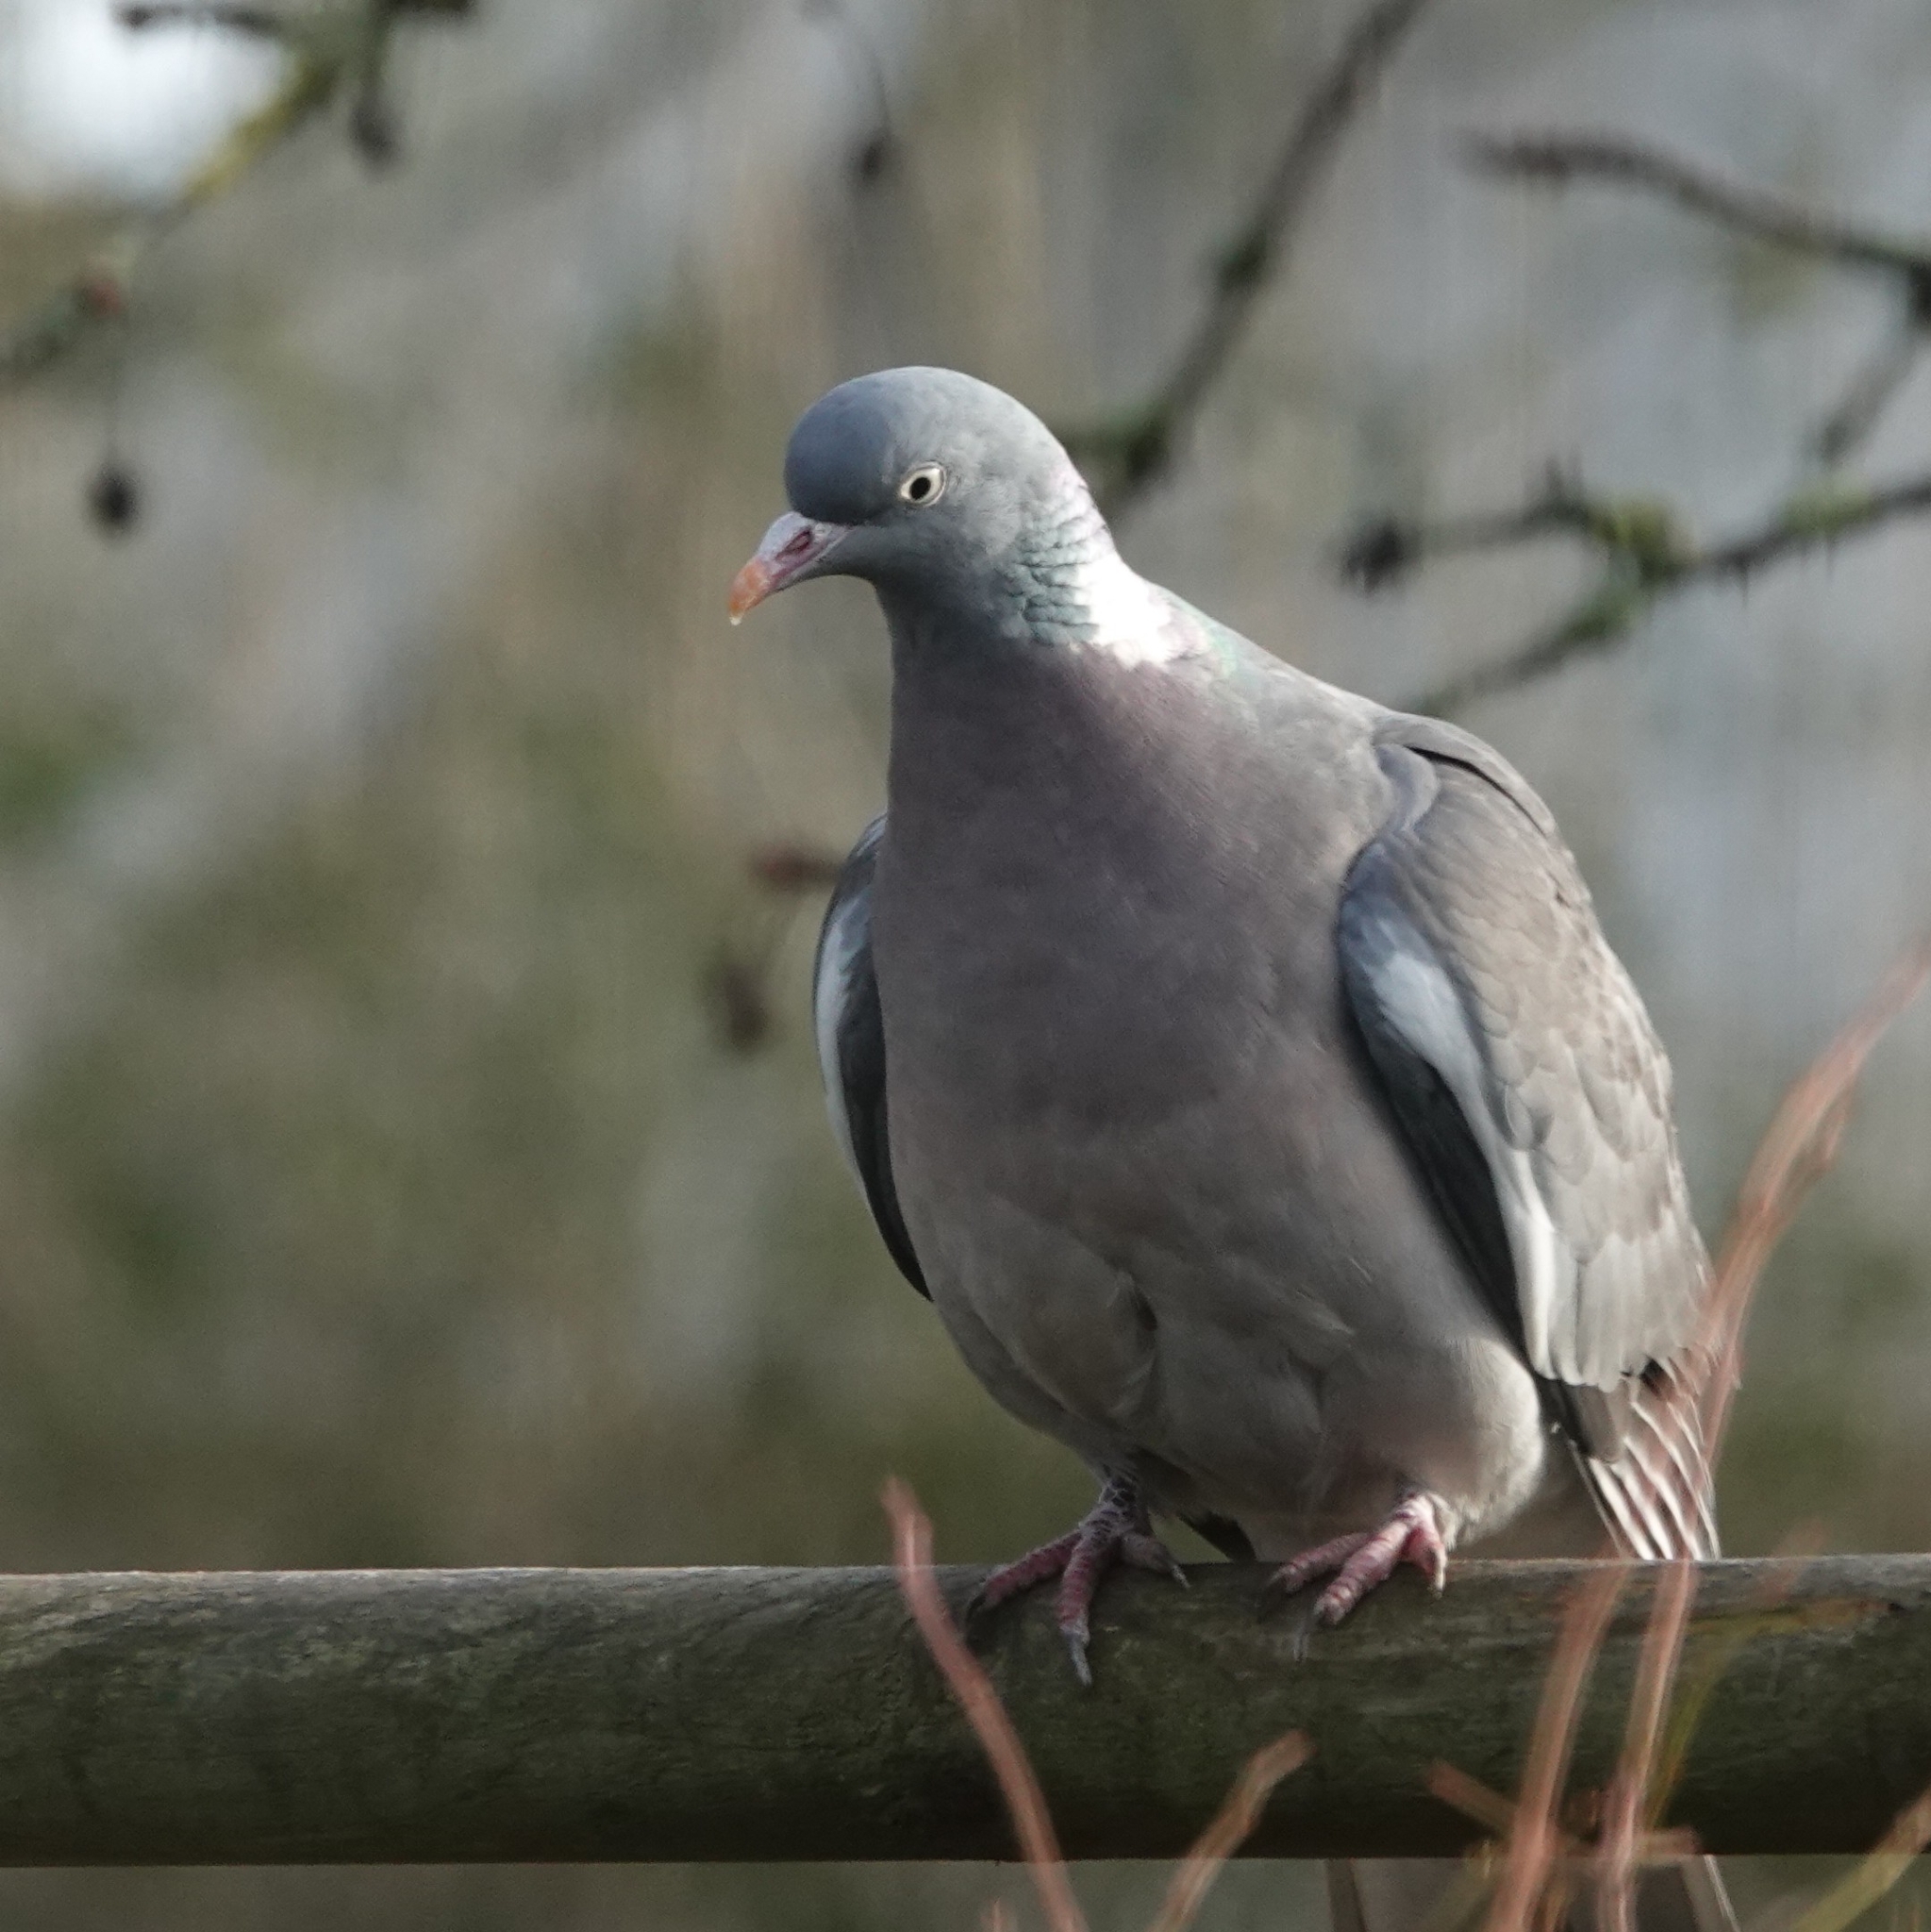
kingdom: Animalia
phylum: Chordata
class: Aves
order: Columbiformes
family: Columbidae
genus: Columba
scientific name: Columba palumbus
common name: Common wood pigeon
